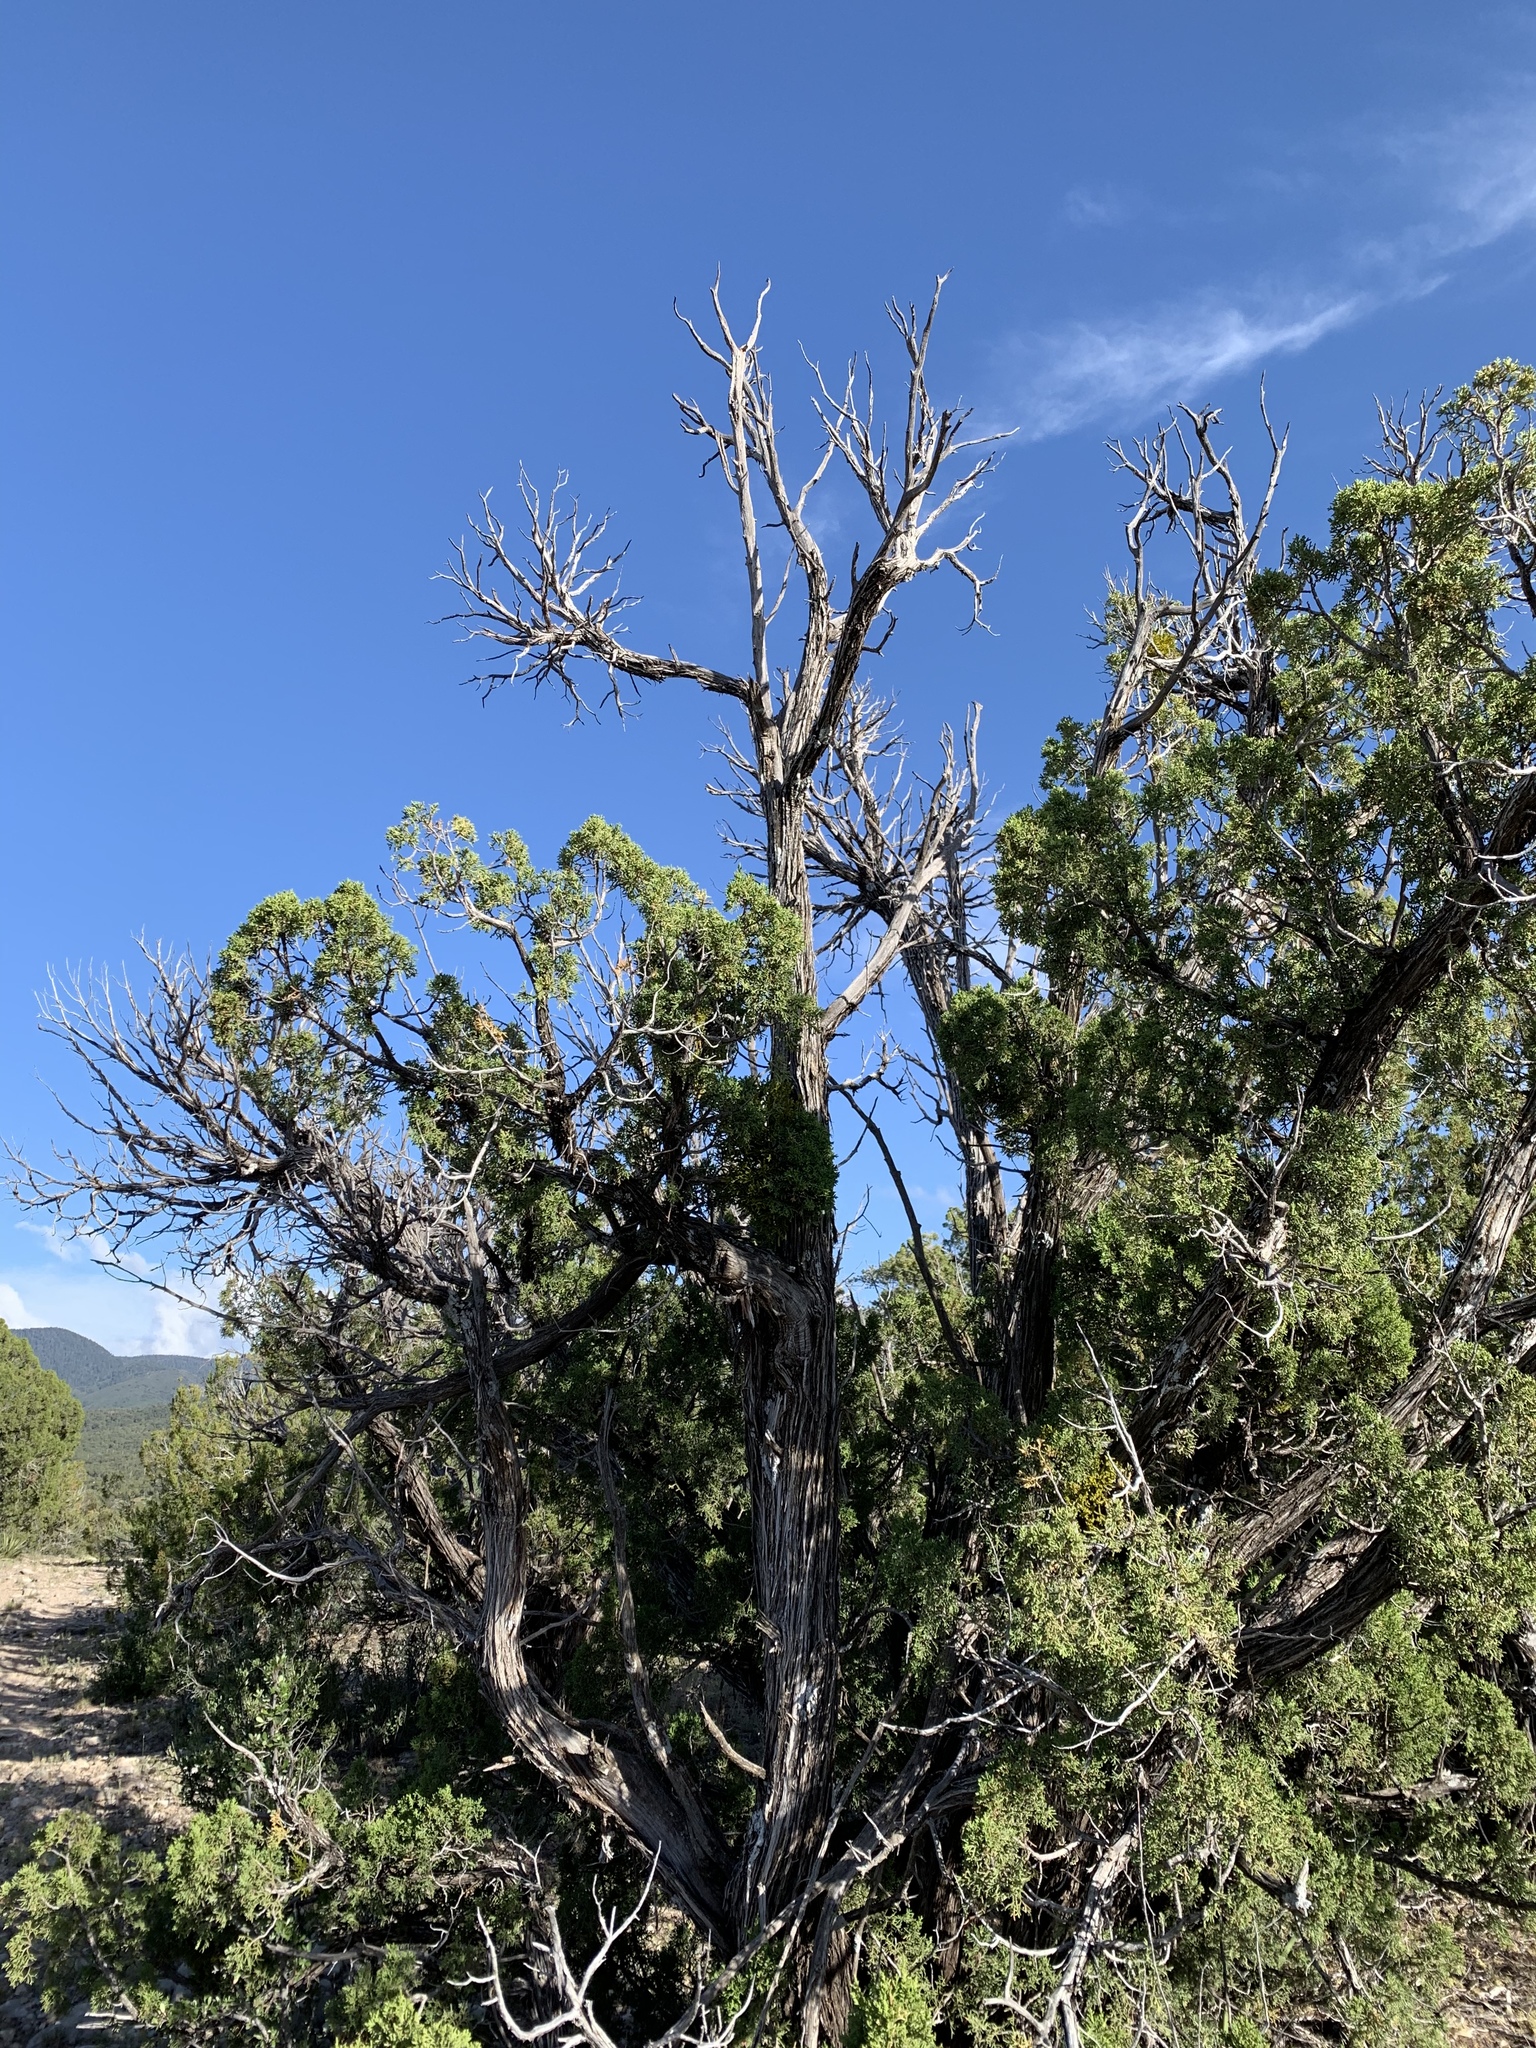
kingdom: Plantae
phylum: Tracheophyta
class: Pinopsida
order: Pinales
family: Cupressaceae
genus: Juniperus
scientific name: Juniperus monosperma
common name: One-seed juniper
